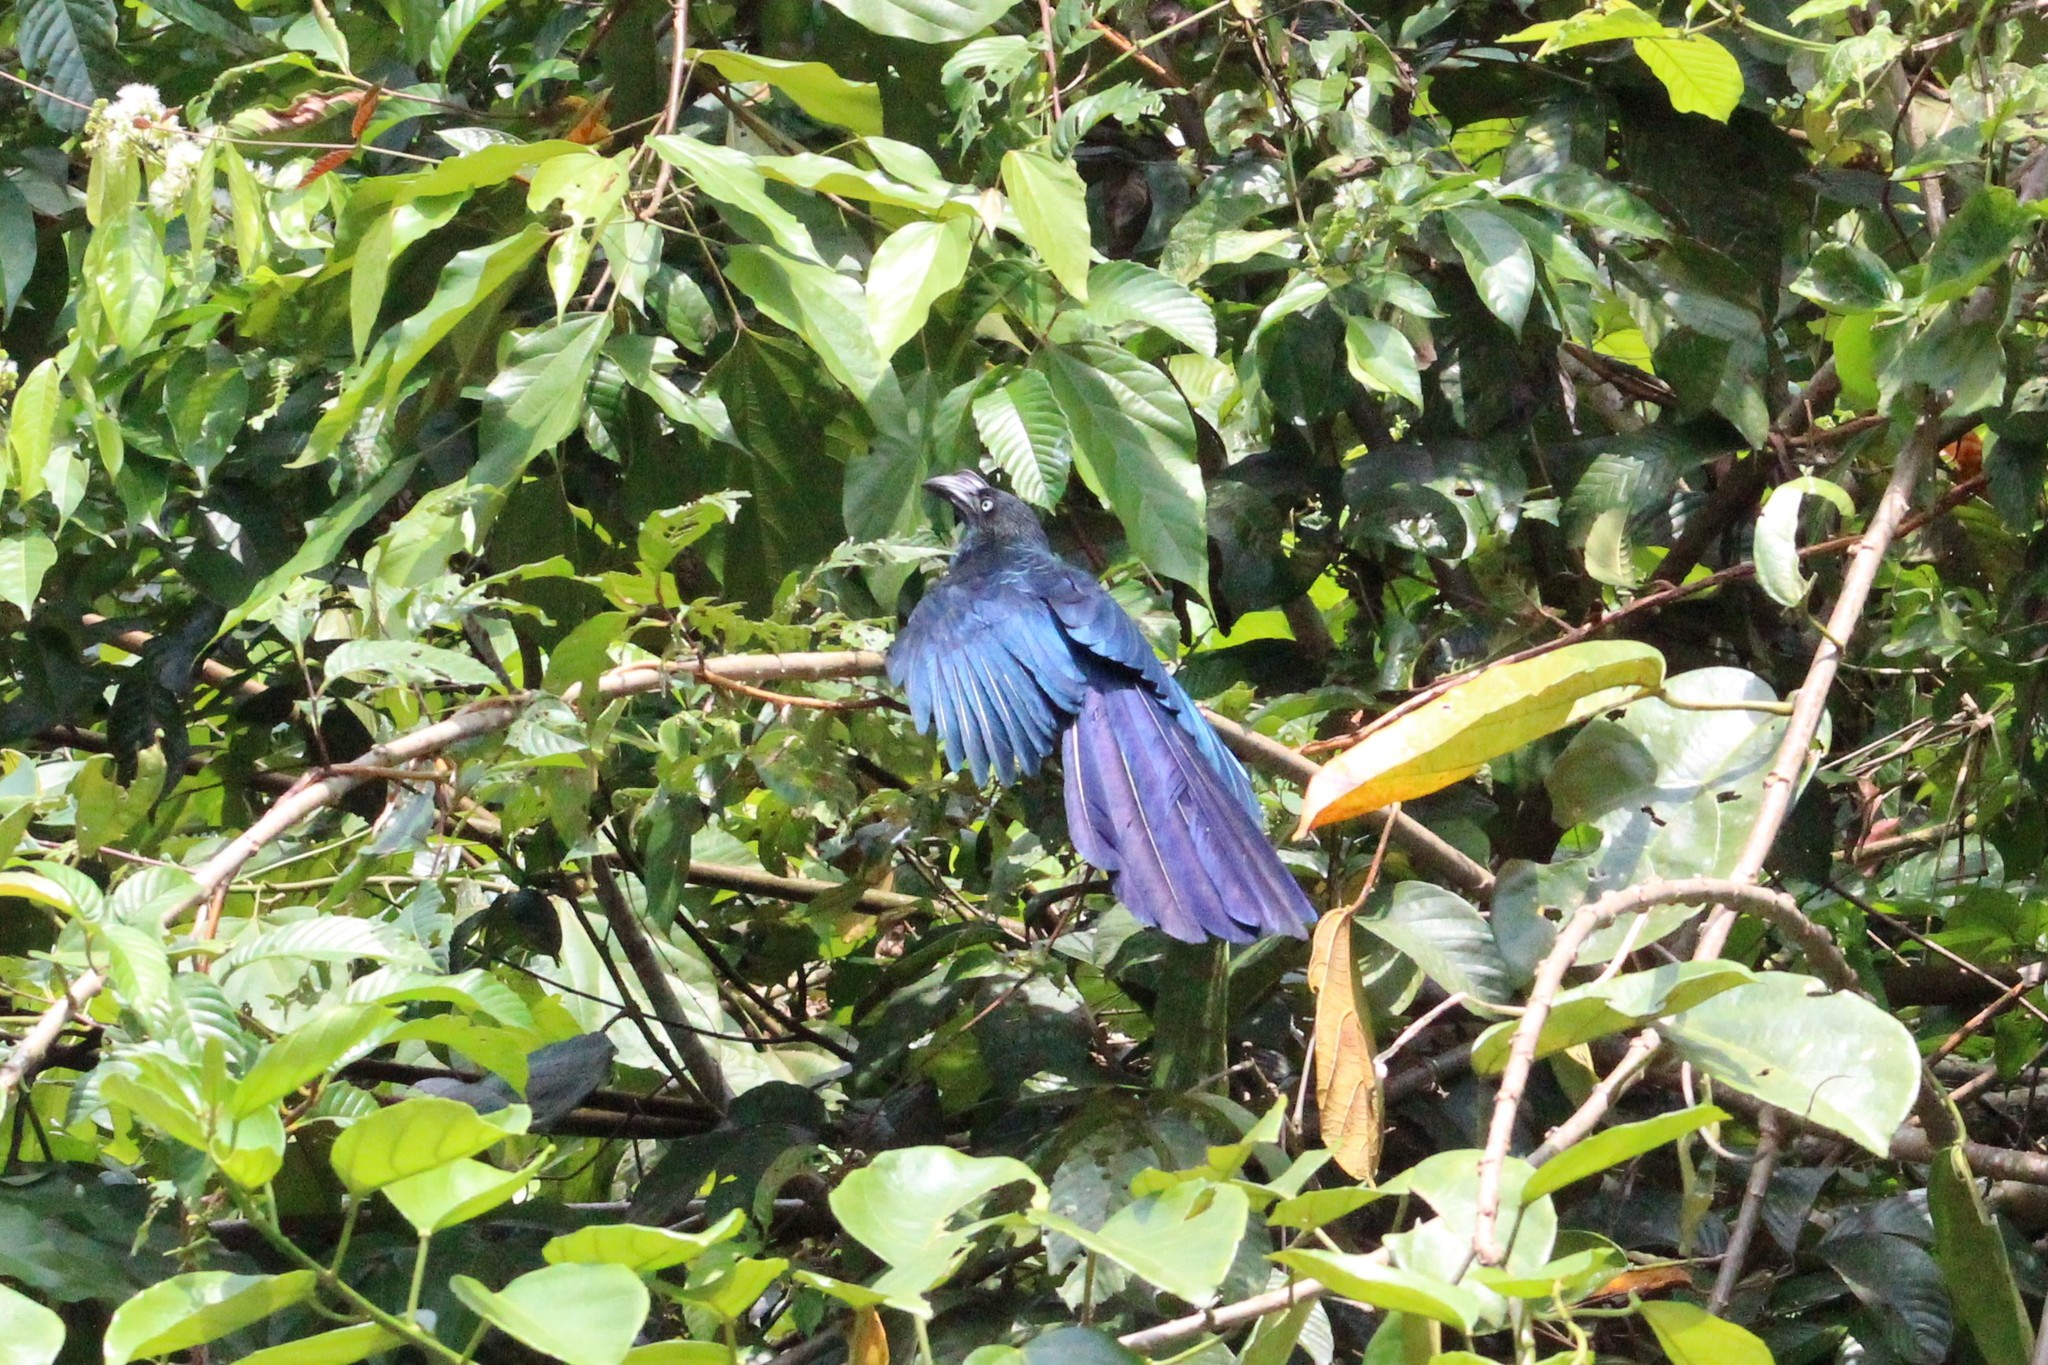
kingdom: Animalia
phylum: Chordata
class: Aves
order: Cuculiformes
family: Cuculidae
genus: Crotophaga
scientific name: Crotophaga major
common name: Greater ani
